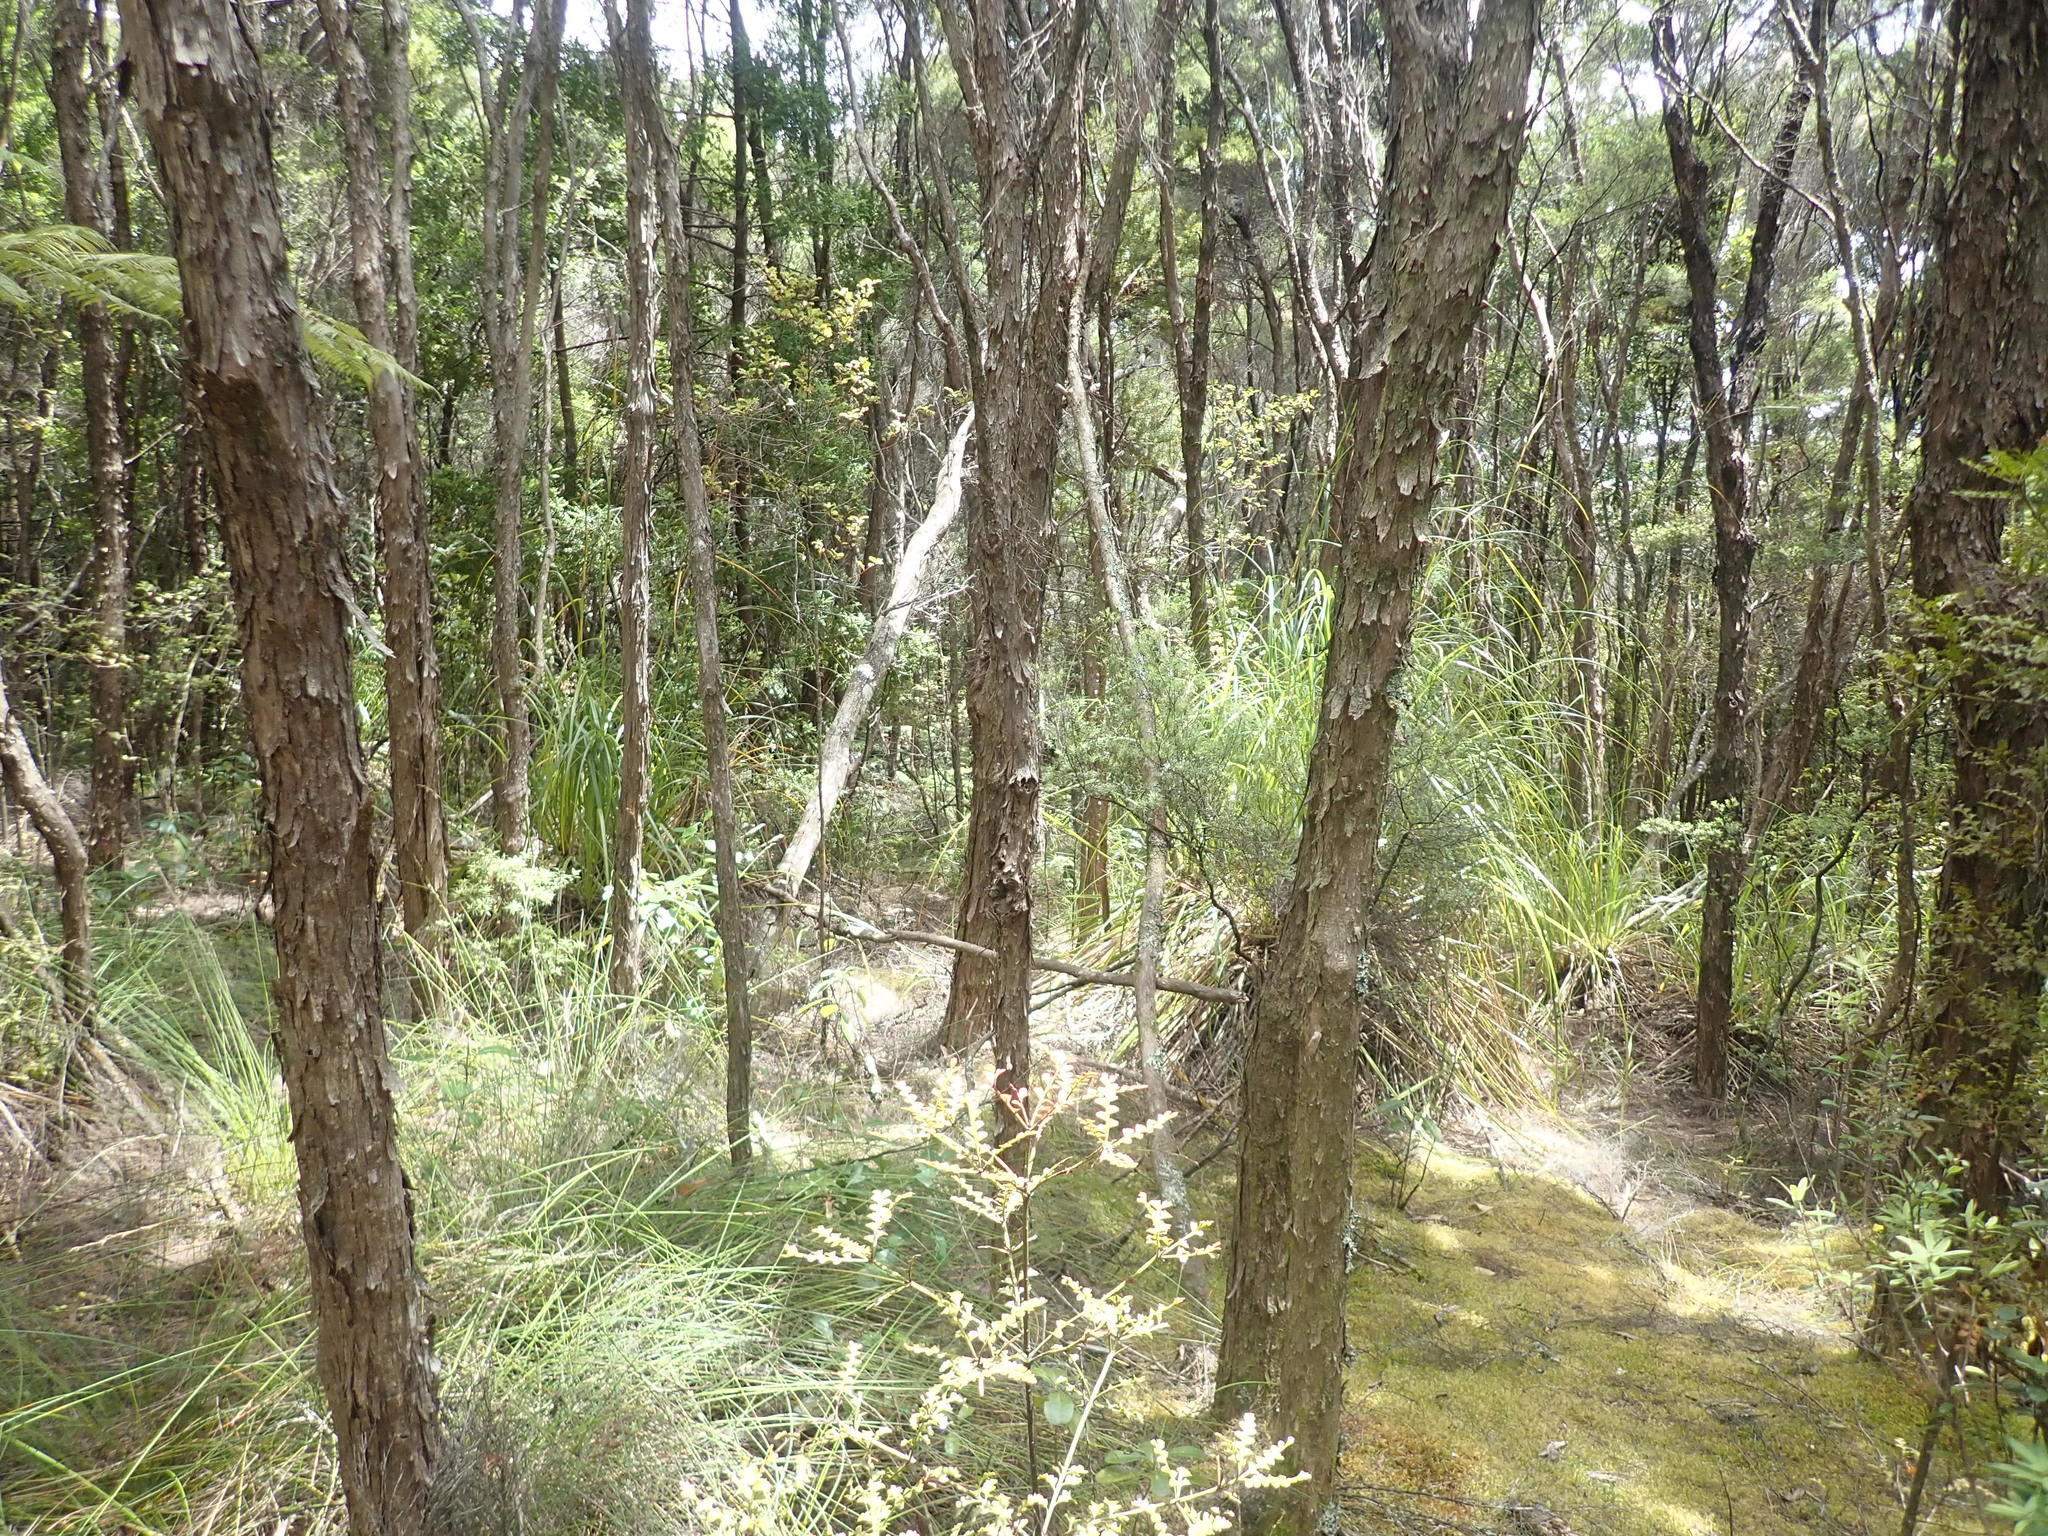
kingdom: Plantae
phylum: Tracheophyta
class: Liliopsida
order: Poales
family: Cyperaceae
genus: Gahnia
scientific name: Gahnia xanthocarpa
